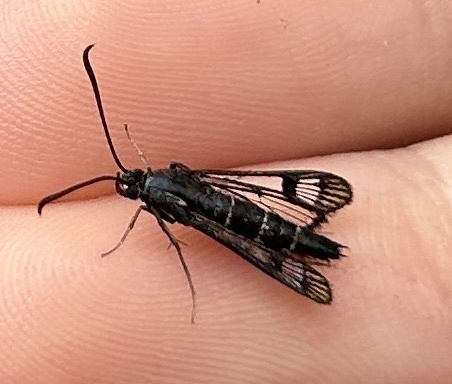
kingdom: Animalia
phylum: Arthropoda
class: Insecta
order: Lepidoptera
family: Sesiidae
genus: Synanthedon
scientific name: Synanthedon tipuliformis
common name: Currant clearwing
